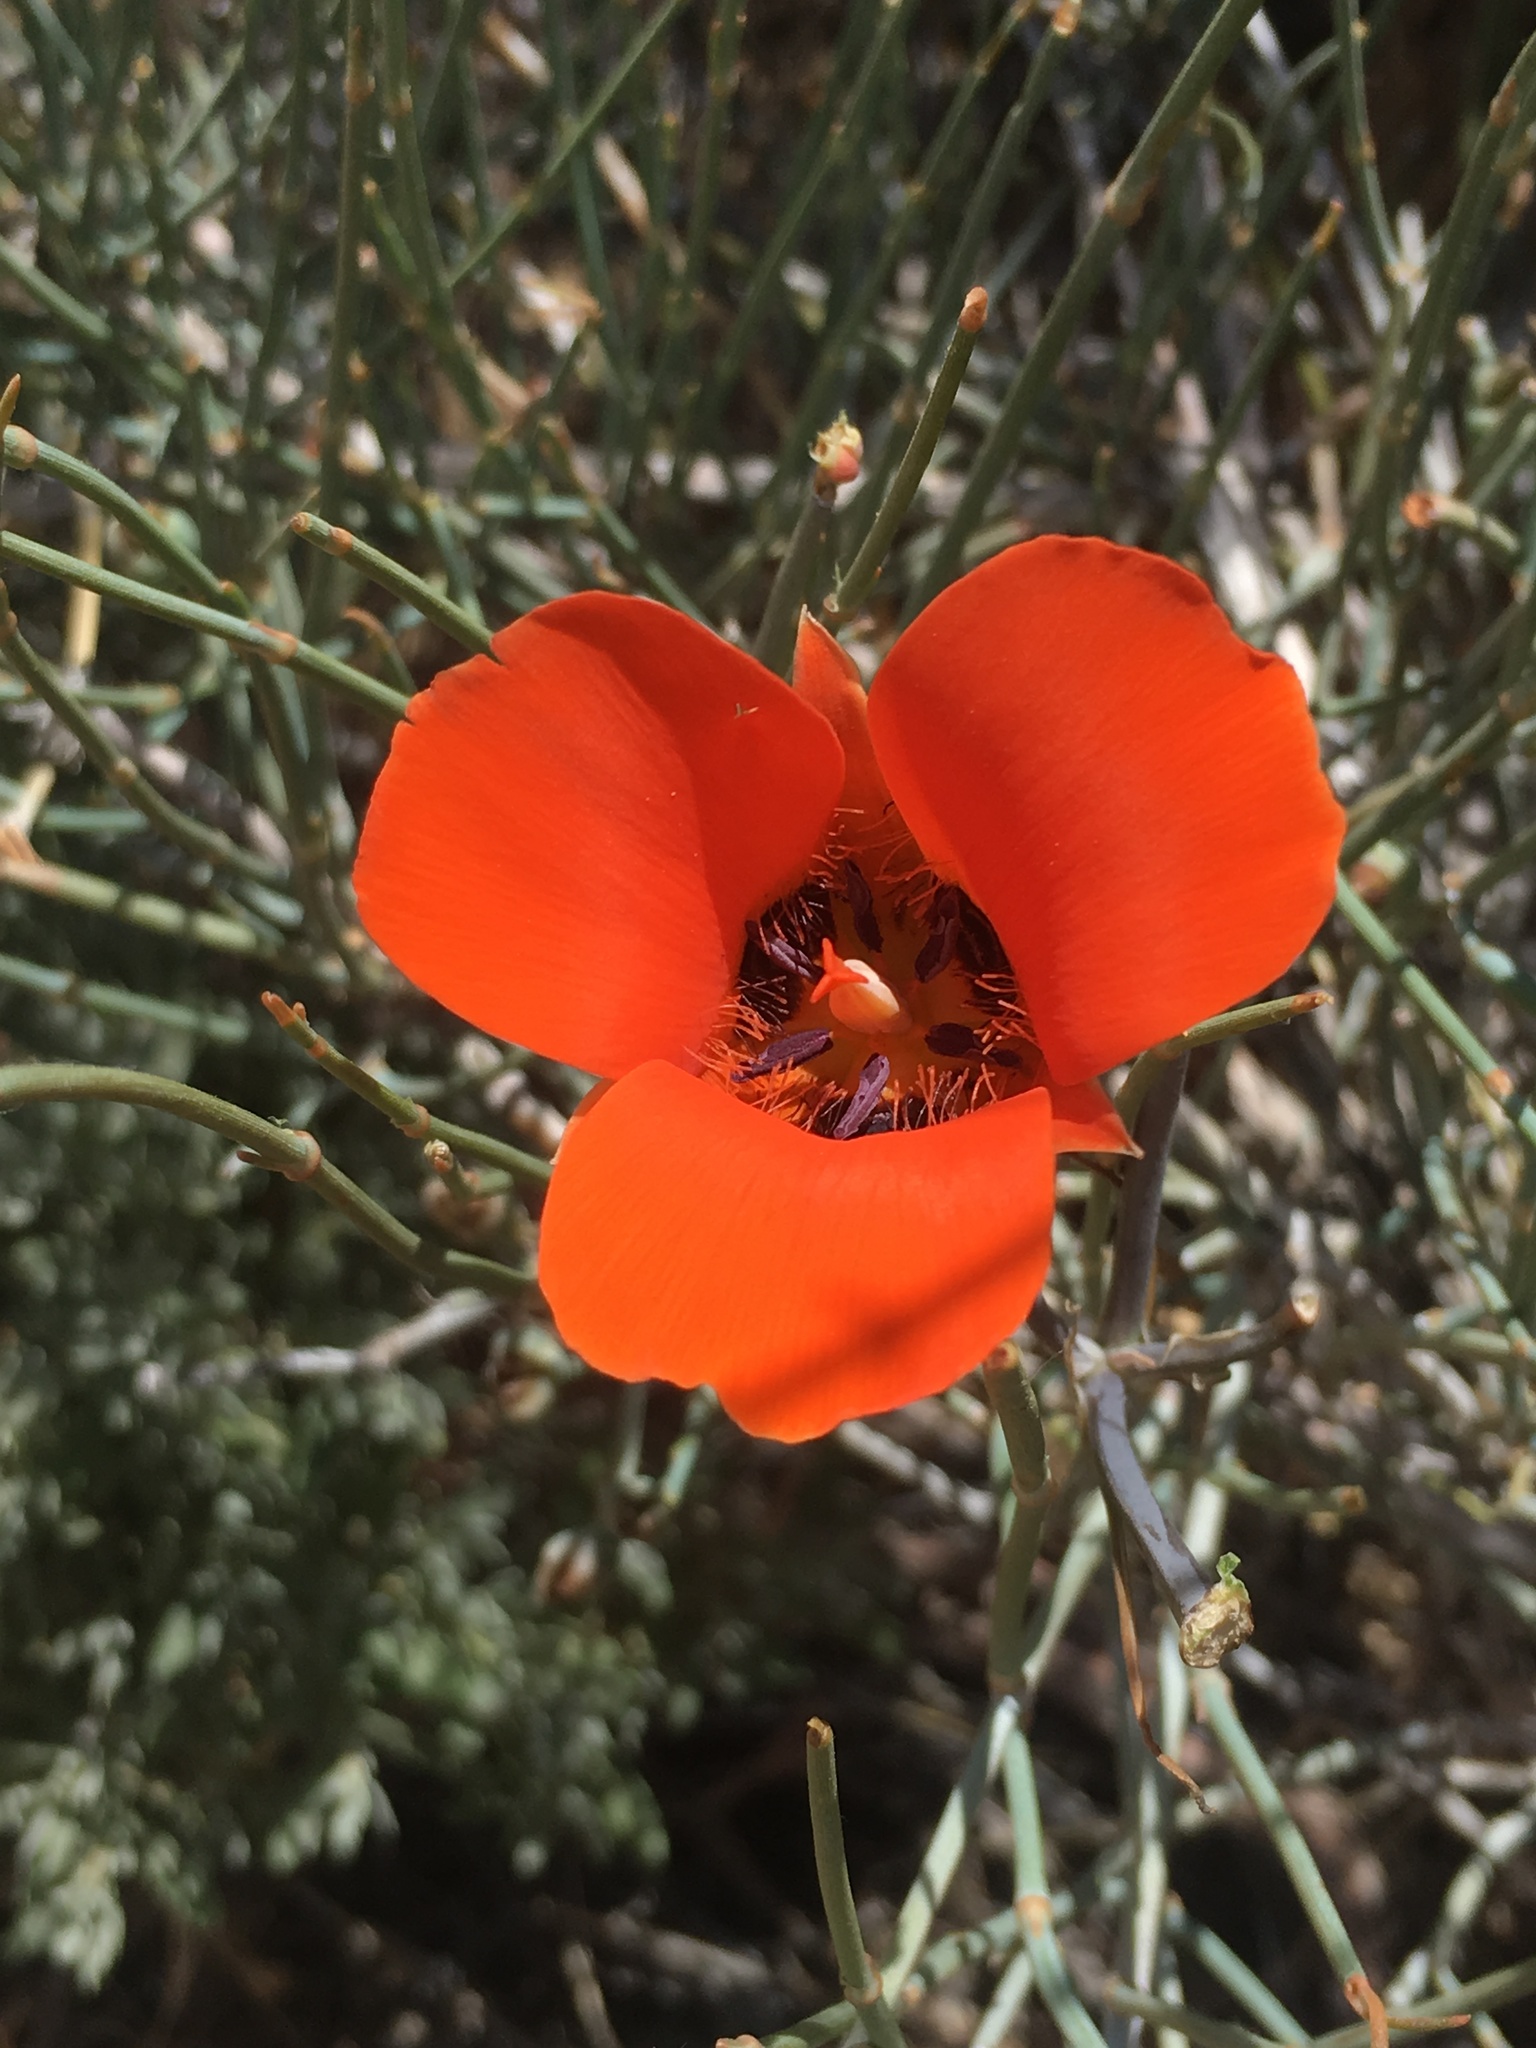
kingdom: Plantae
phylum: Tracheophyta
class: Liliopsida
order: Liliales
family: Liliaceae
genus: Calochortus
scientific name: Calochortus kennedyi
